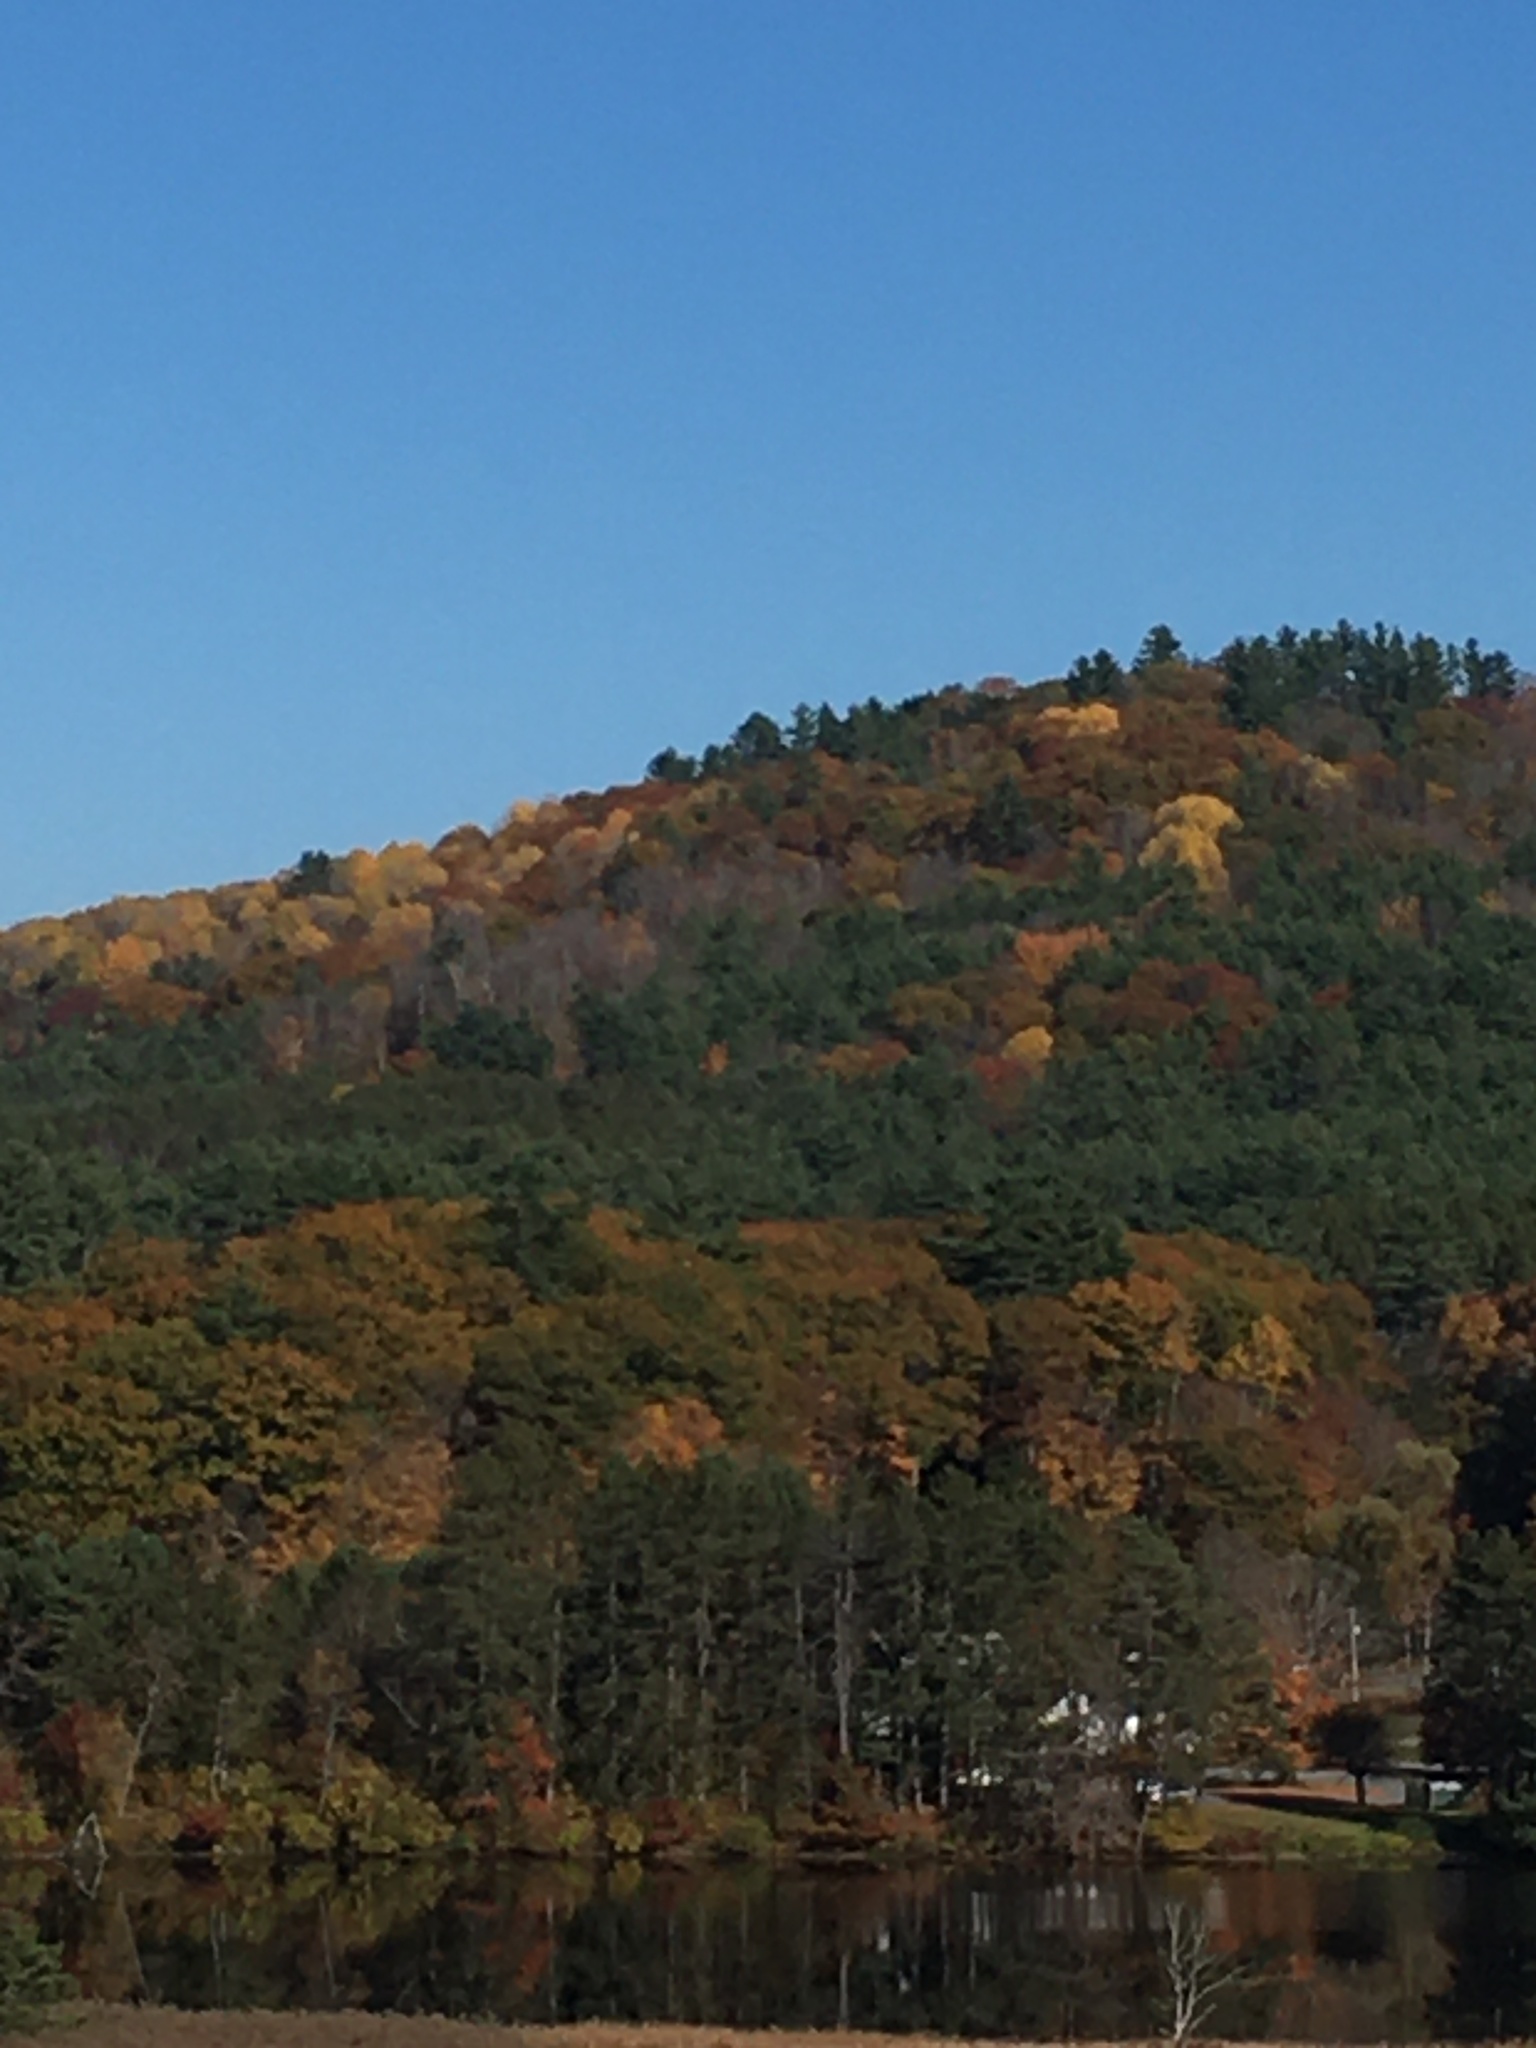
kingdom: Plantae
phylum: Tracheophyta
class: Magnoliopsida
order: Fagales
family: Fagaceae
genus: Quercus
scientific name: Quercus rubra
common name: Red oak
